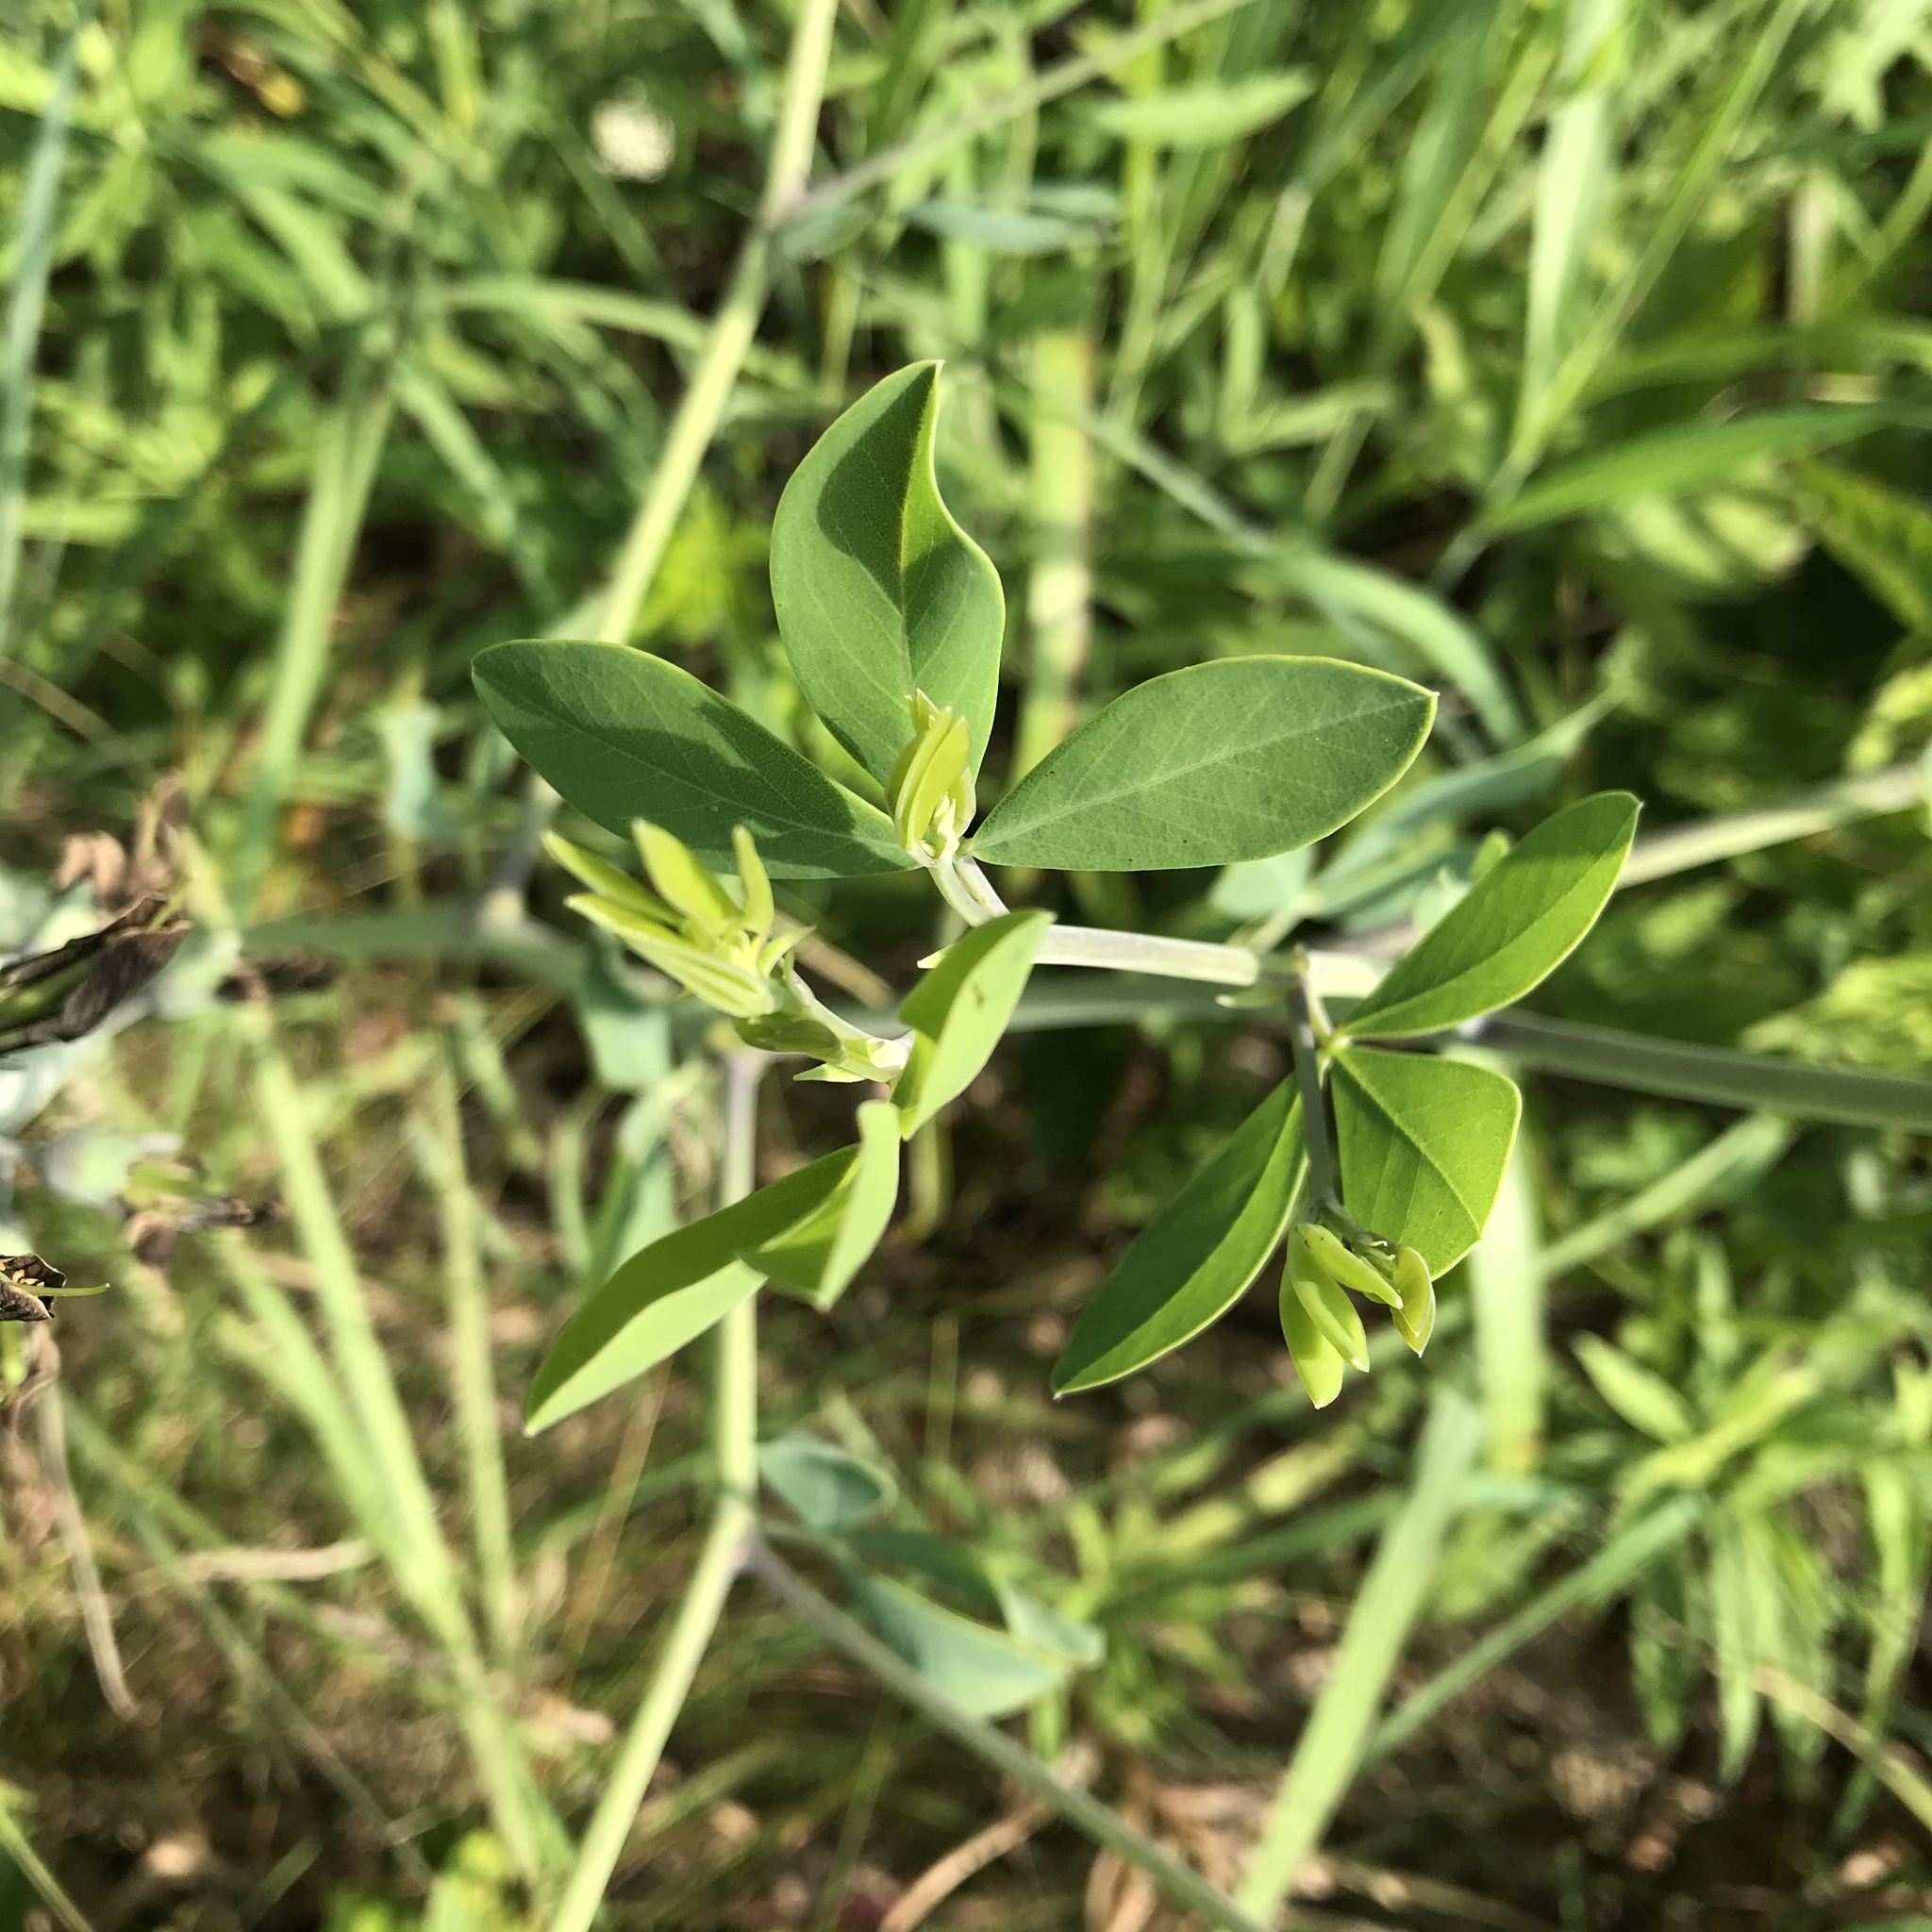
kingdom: Plantae
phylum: Tracheophyta
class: Magnoliopsida
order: Fabales
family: Fabaceae
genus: Baptisia
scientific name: Baptisia alba
